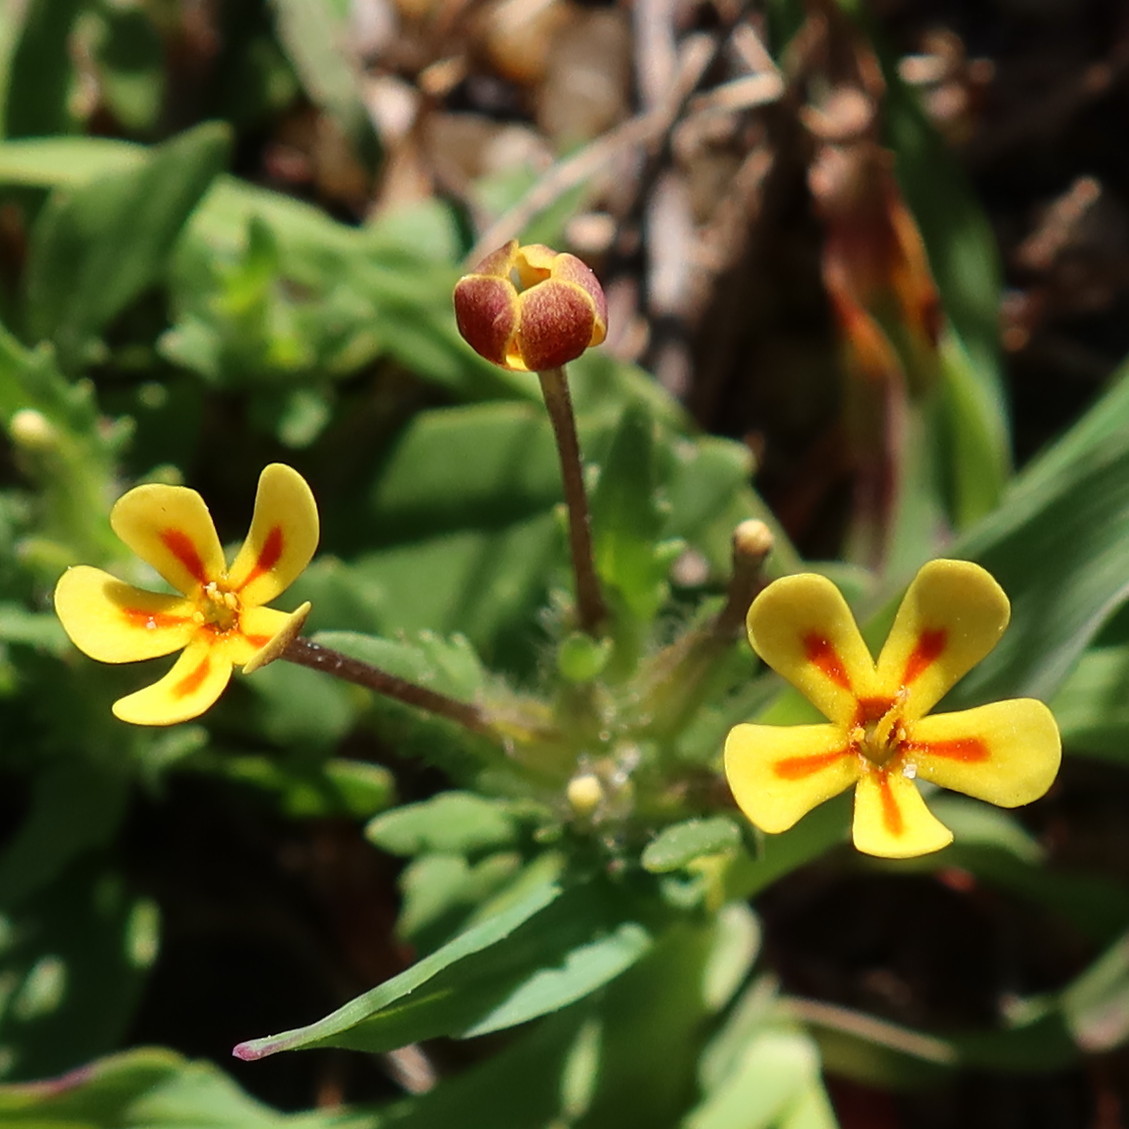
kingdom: Plantae
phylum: Tracheophyta
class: Magnoliopsida
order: Lamiales
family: Scrophulariaceae
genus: Zaluzianskya
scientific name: Zaluzianskya divaricata
